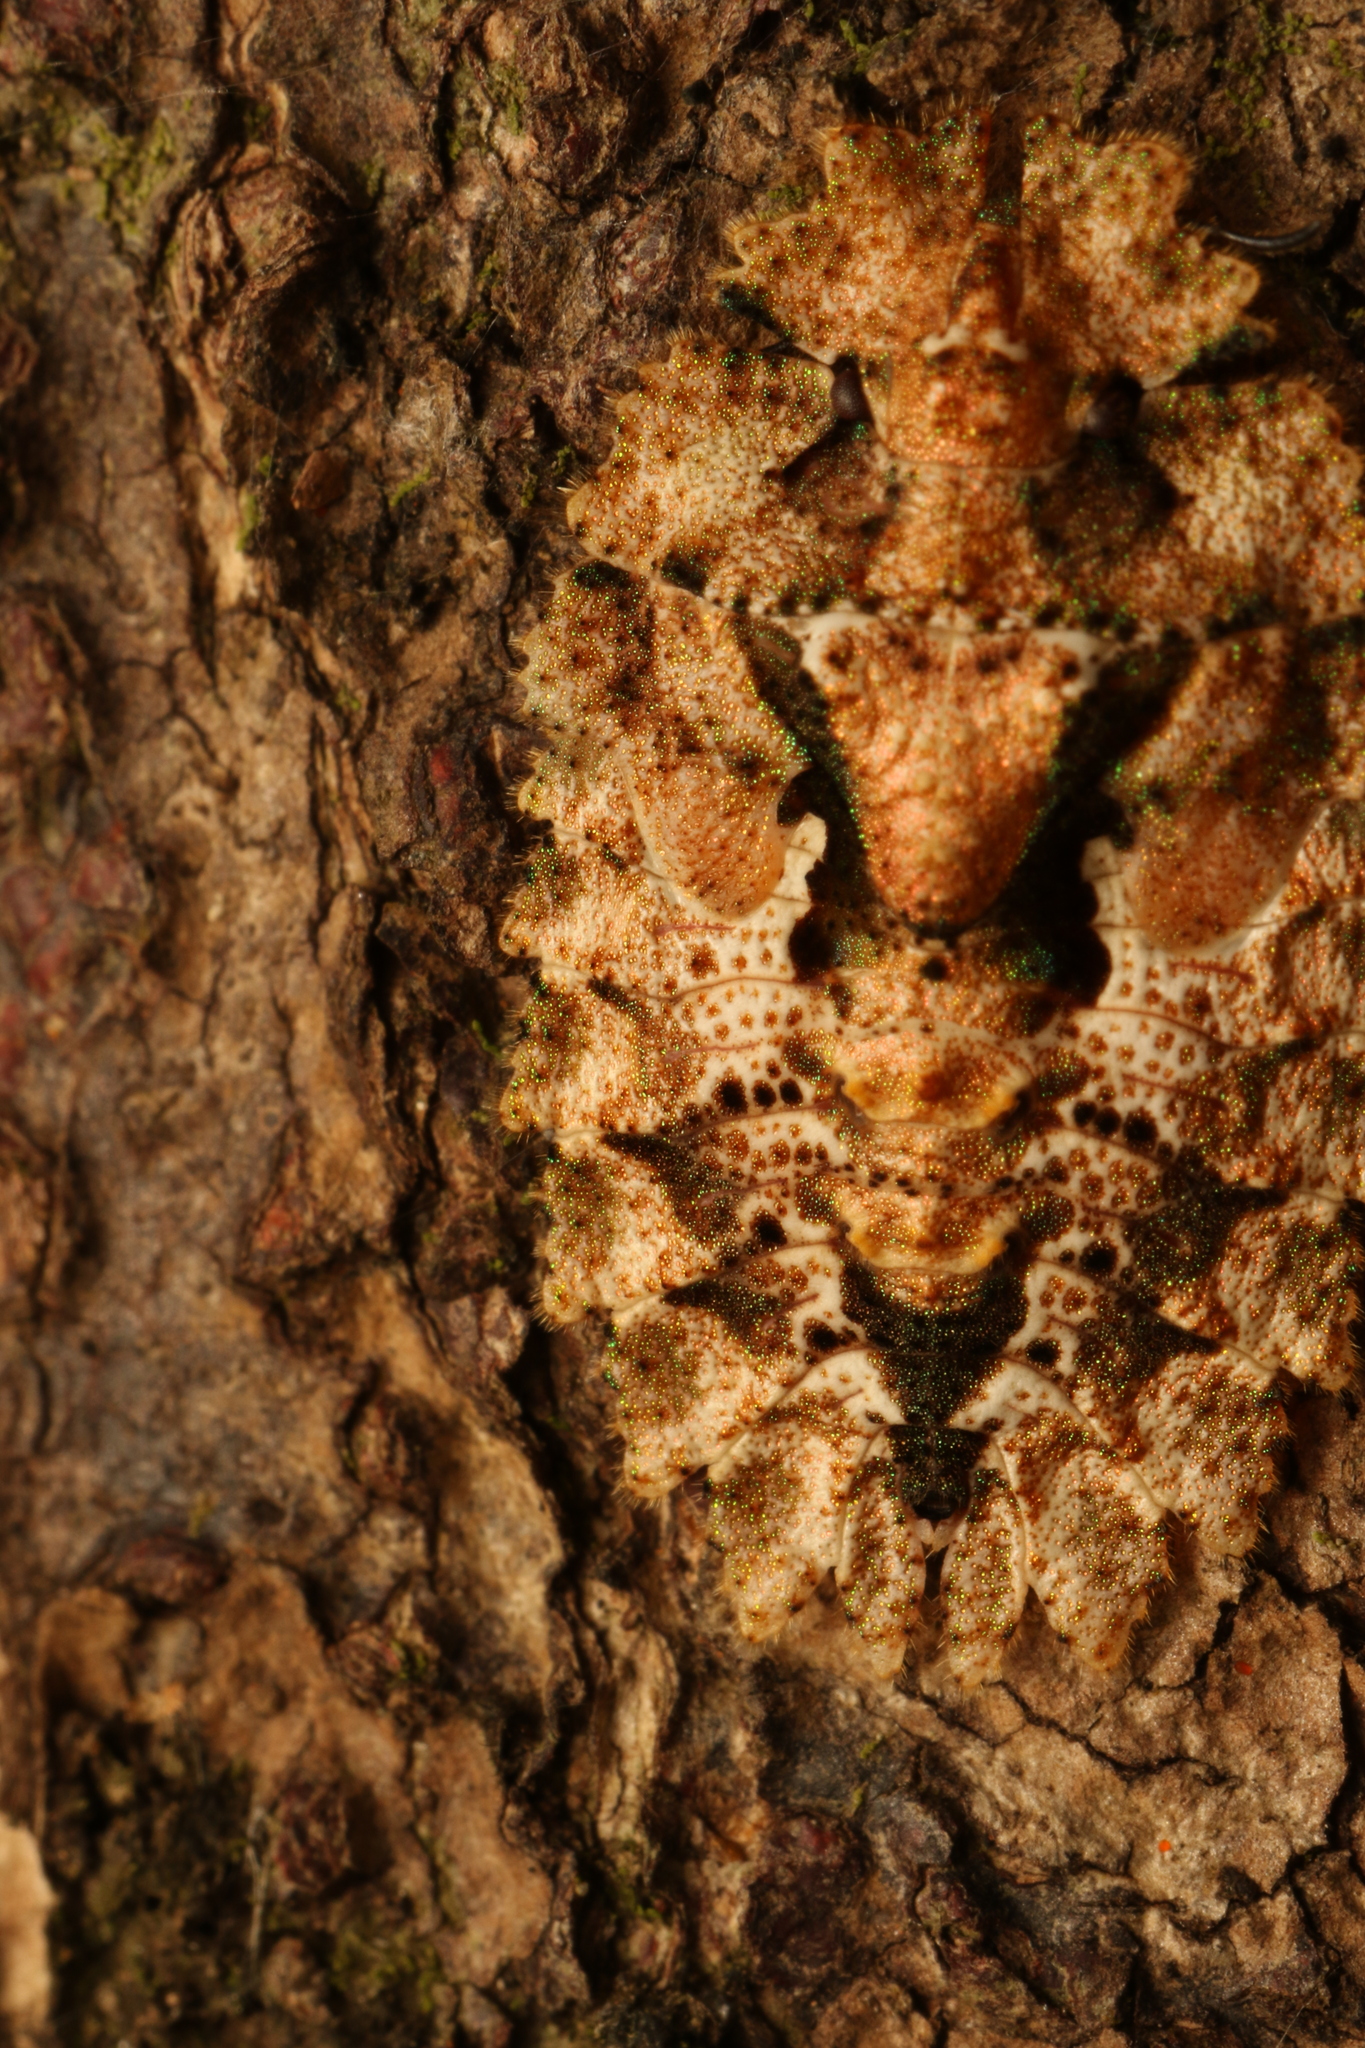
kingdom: Animalia
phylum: Arthropoda
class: Insecta
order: Hemiptera
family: Phloeidae
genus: Phloeophana
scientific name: Phloeophana longirostris
